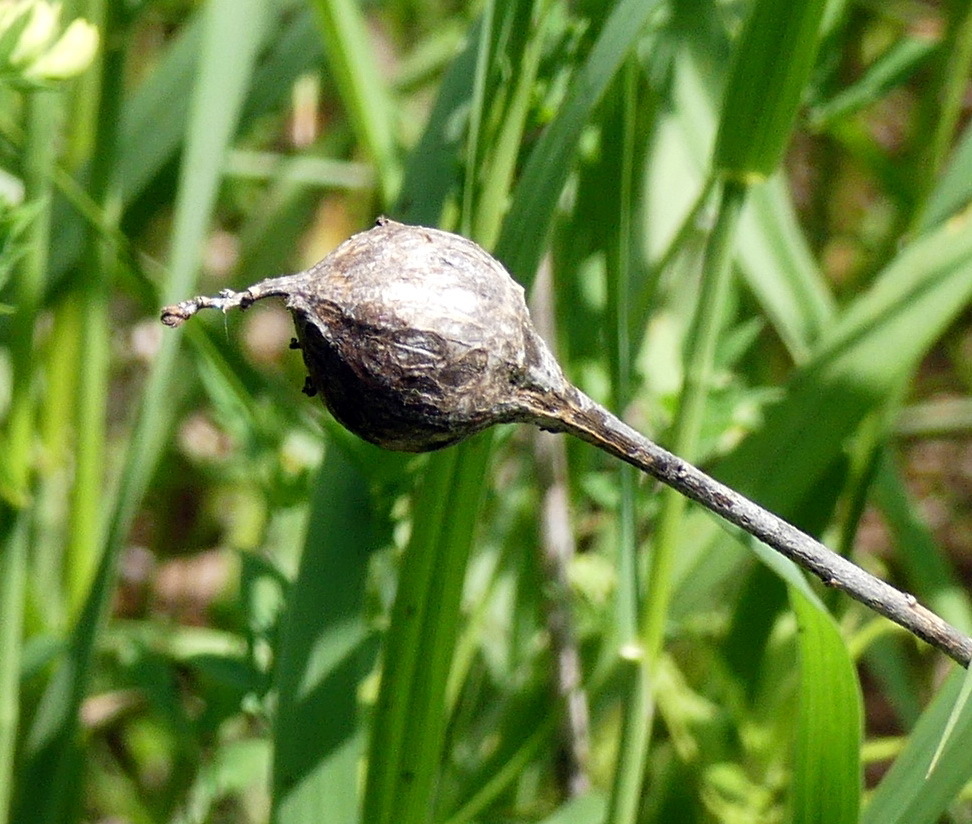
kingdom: Animalia
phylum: Arthropoda
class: Insecta
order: Diptera
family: Tephritidae
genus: Eurosta
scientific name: Eurosta solidaginis
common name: Goldenrod gall fly
